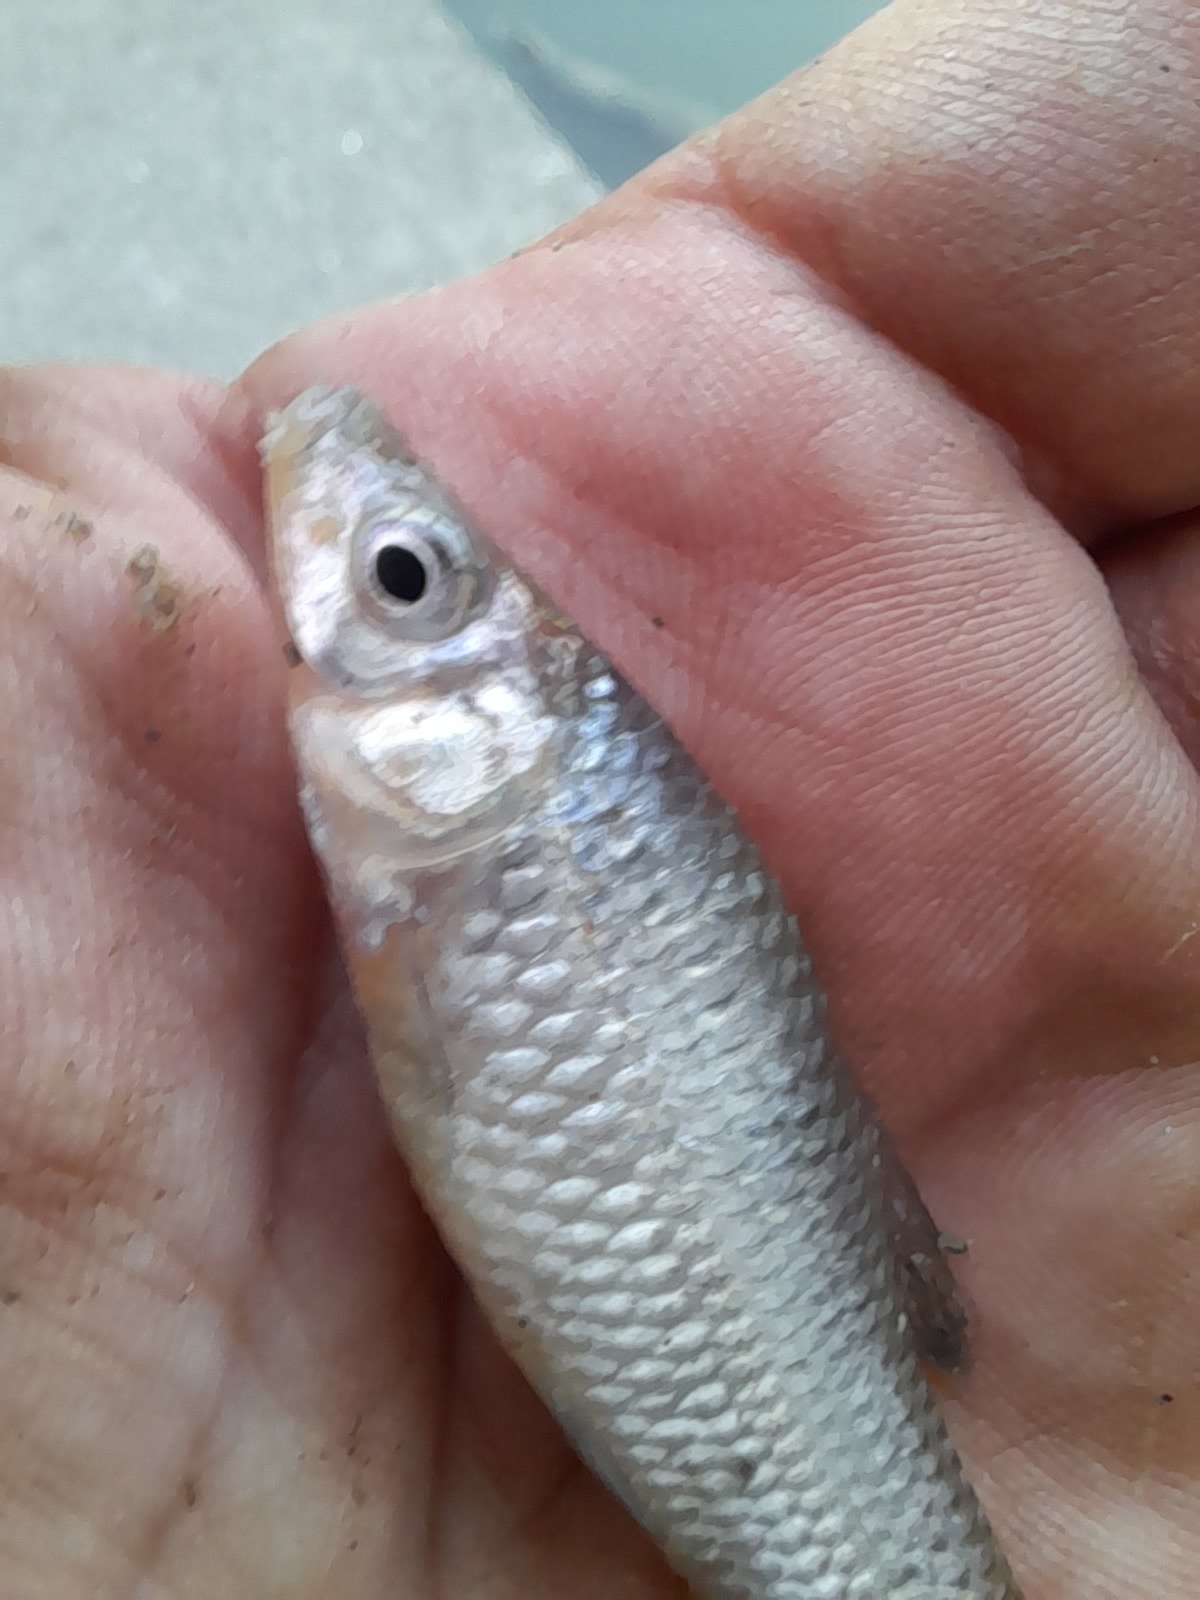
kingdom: Animalia
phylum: Chordata
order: Cypriniformes
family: Cyprinidae
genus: Pseudorasbora
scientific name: Pseudorasbora parva
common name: Topmouth gudgeon
